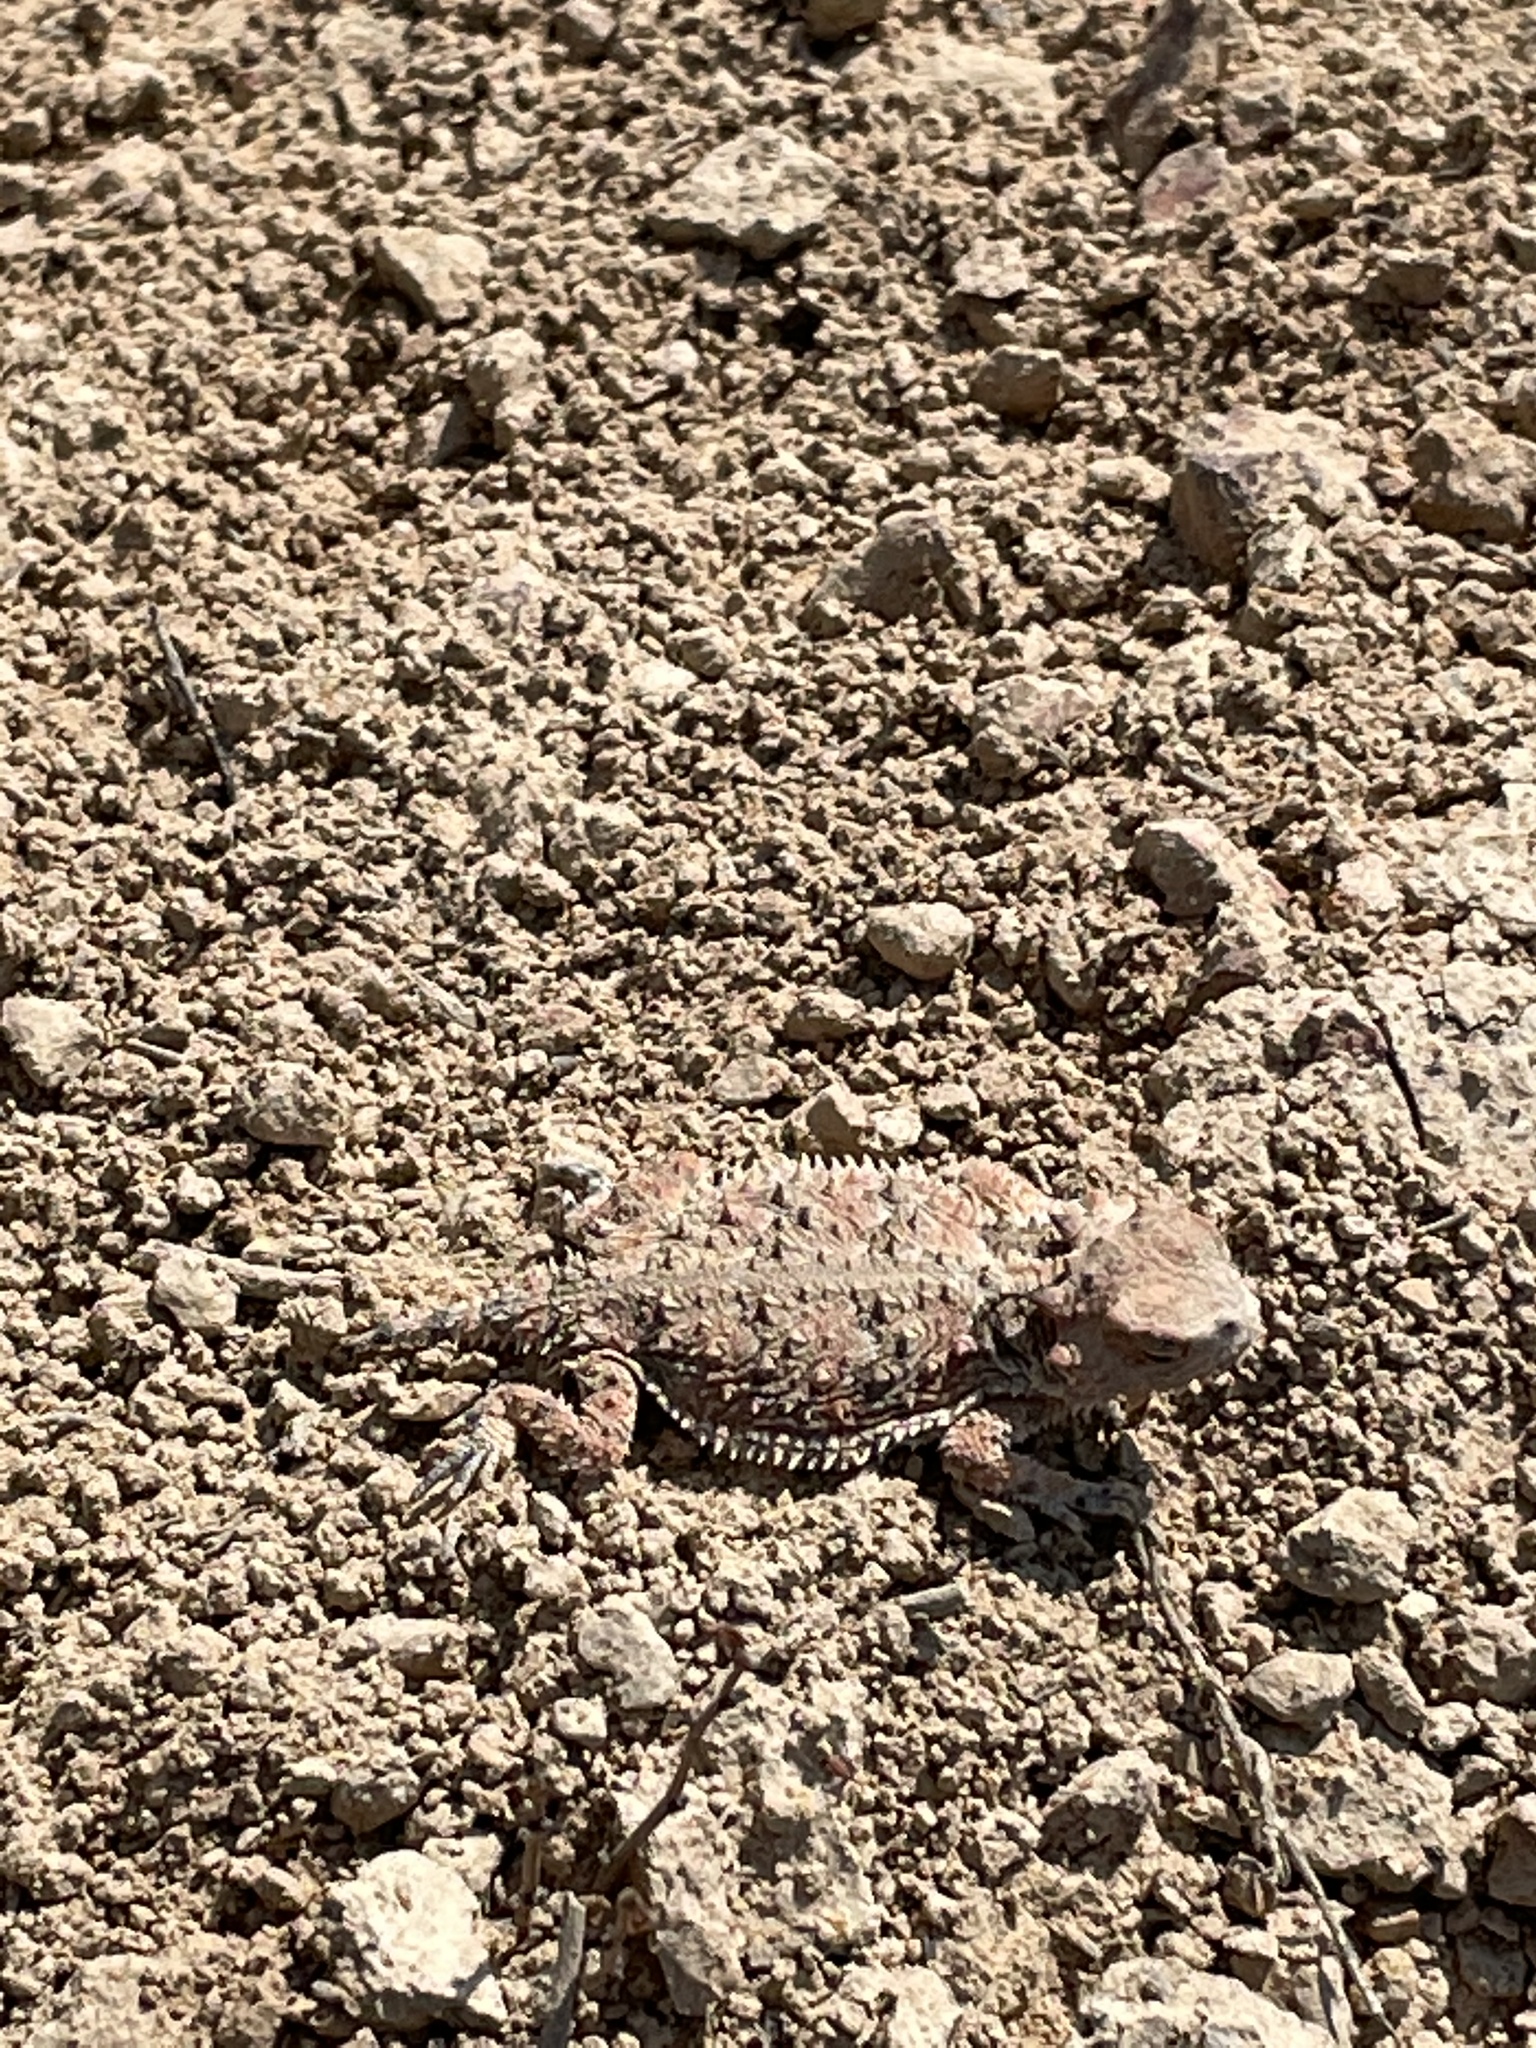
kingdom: Animalia
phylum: Chordata
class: Squamata
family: Phrynosomatidae
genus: Phrynosoma
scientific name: Phrynosoma blainvillii
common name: San diego horned lizard
